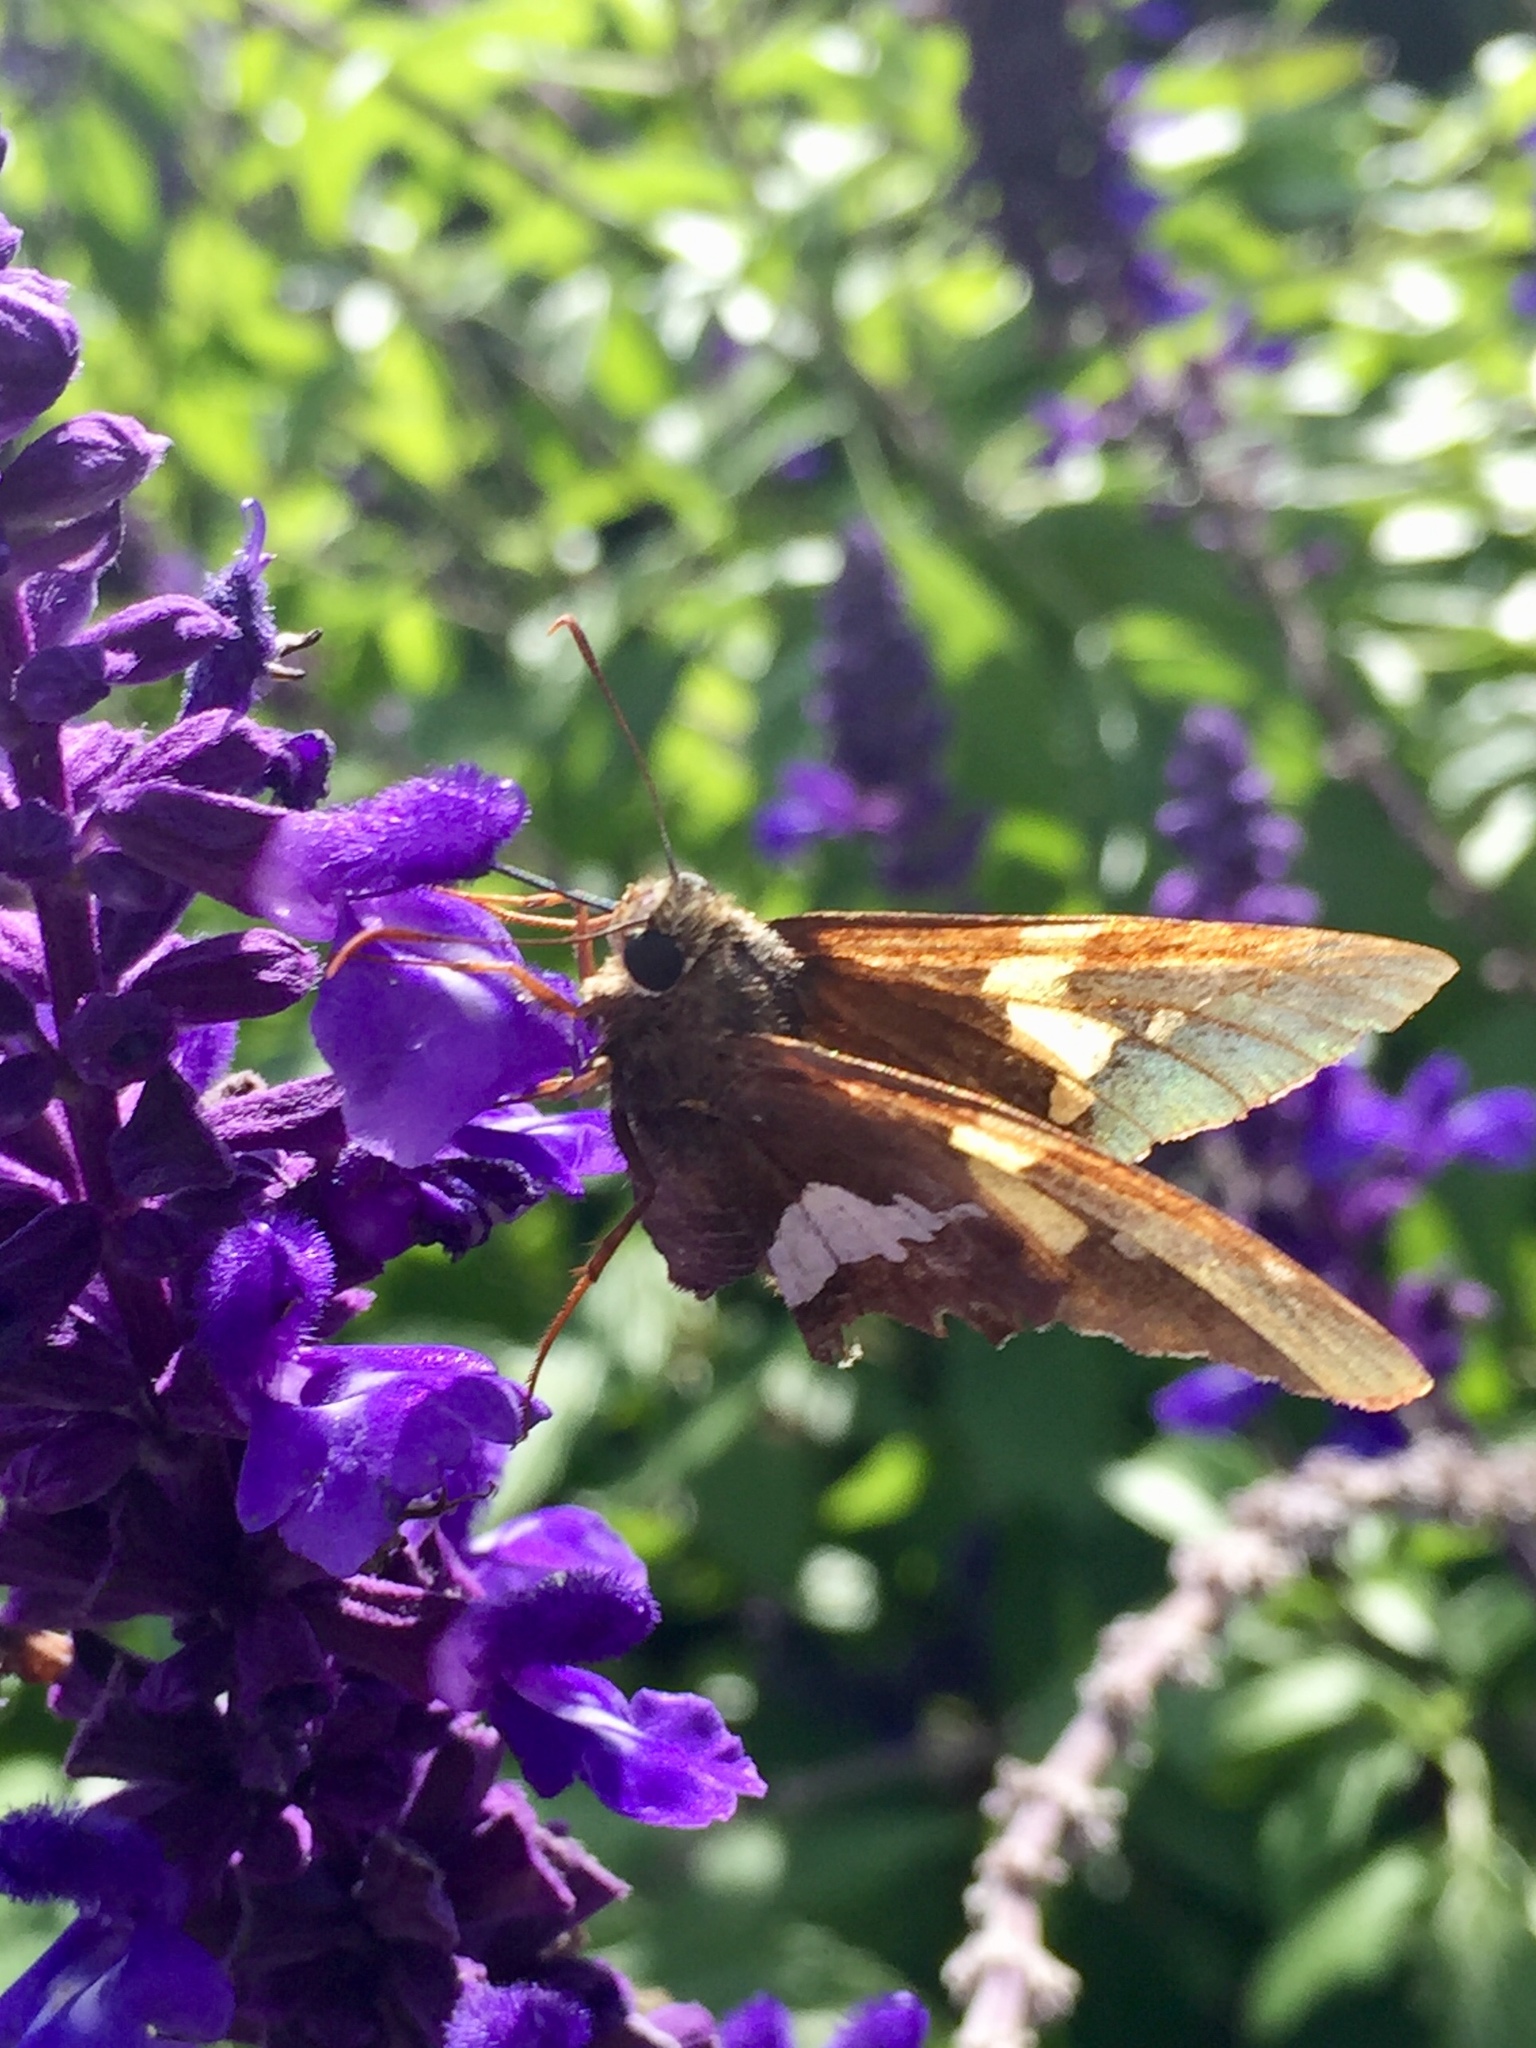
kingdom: Animalia
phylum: Arthropoda
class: Insecta
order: Lepidoptera
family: Hesperiidae
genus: Epargyreus
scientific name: Epargyreus clarus
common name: Silver-spotted skipper
